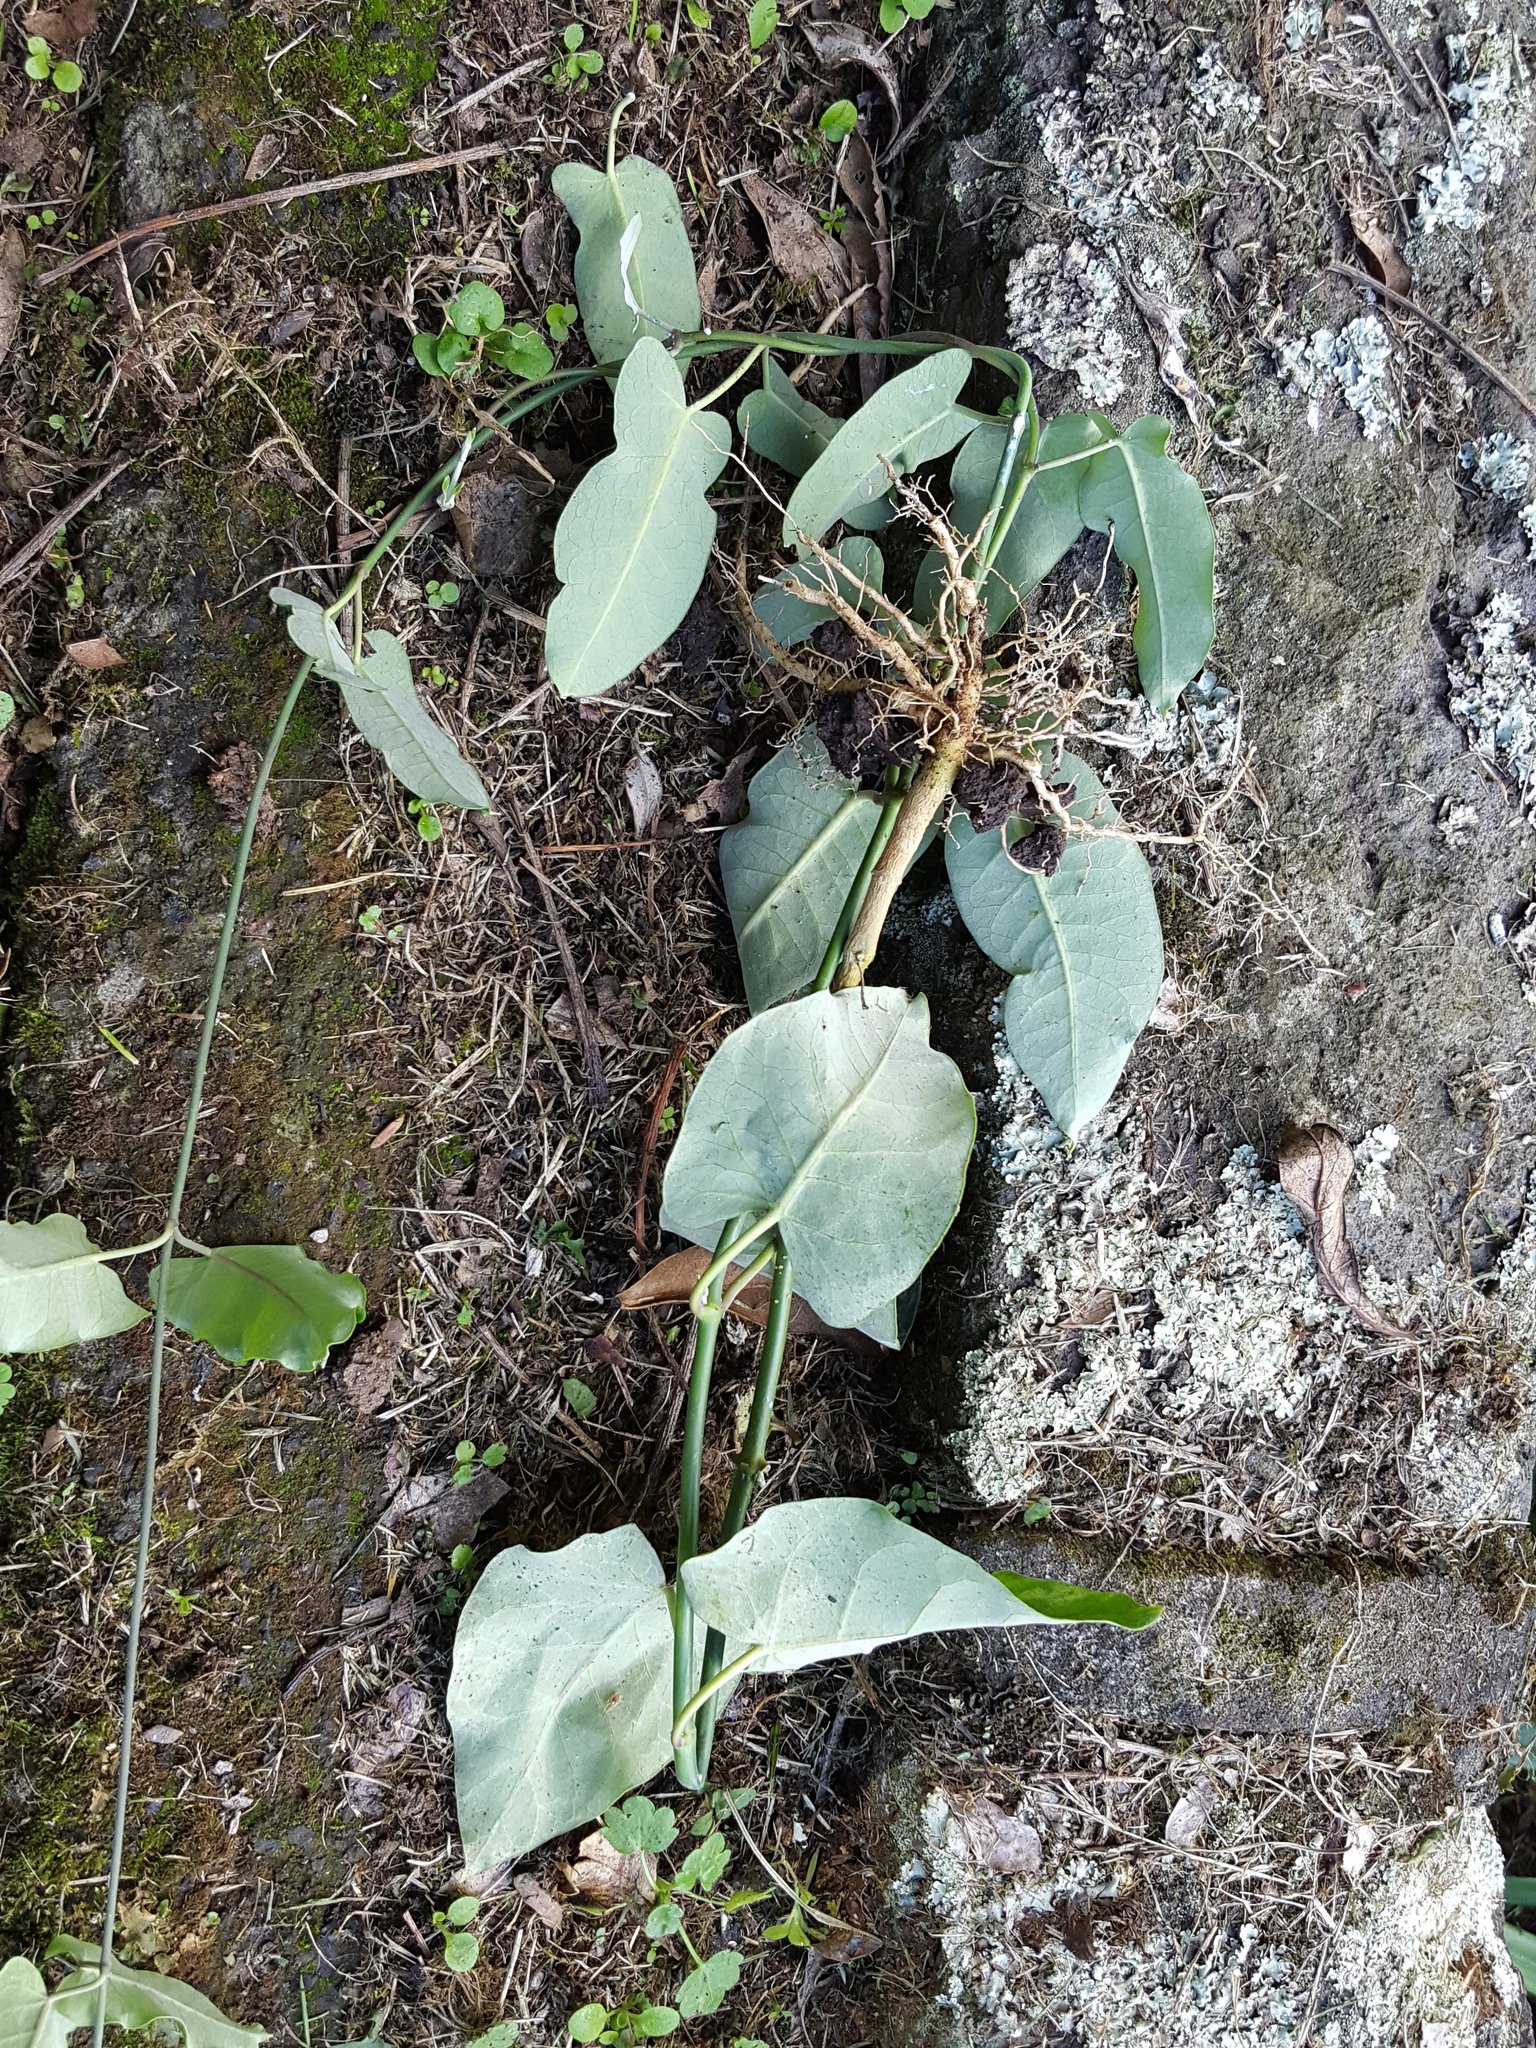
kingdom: Plantae
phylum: Tracheophyta
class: Magnoliopsida
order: Gentianales
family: Apocynaceae
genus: Araujia
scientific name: Araujia sericifera
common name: White bladderflower
